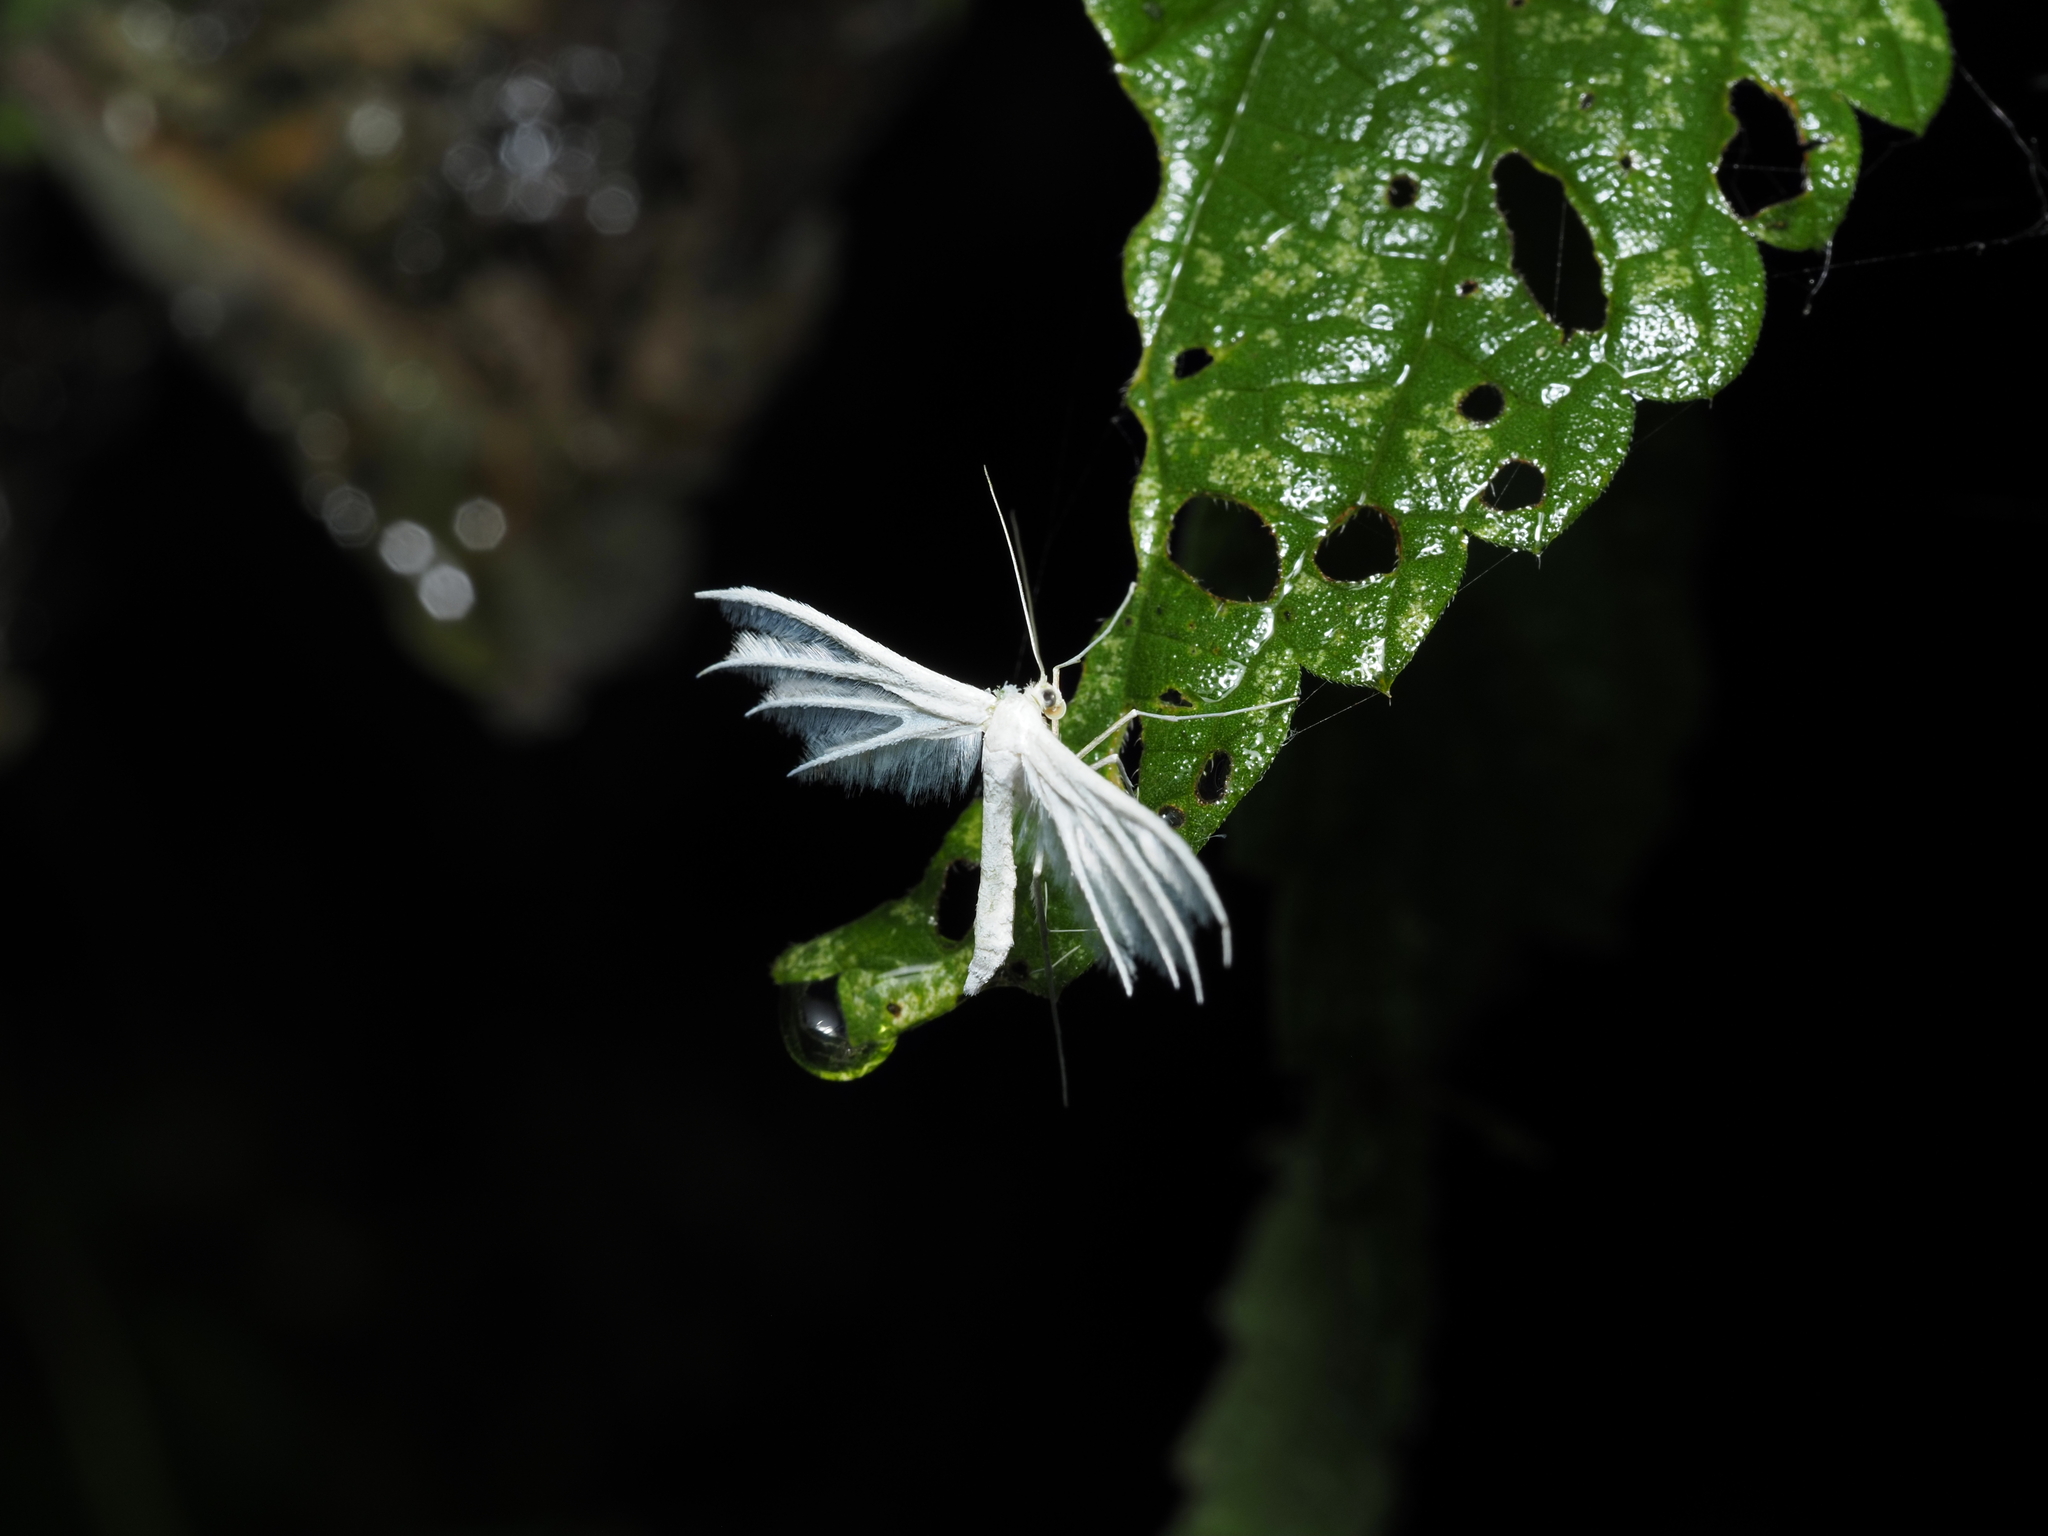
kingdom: Animalia
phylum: Arthropoda
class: Insecta
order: Lepidoptera
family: Pterophoridae
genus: Pterophorus
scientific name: Pterophorus pentadactyla
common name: White plume moth
